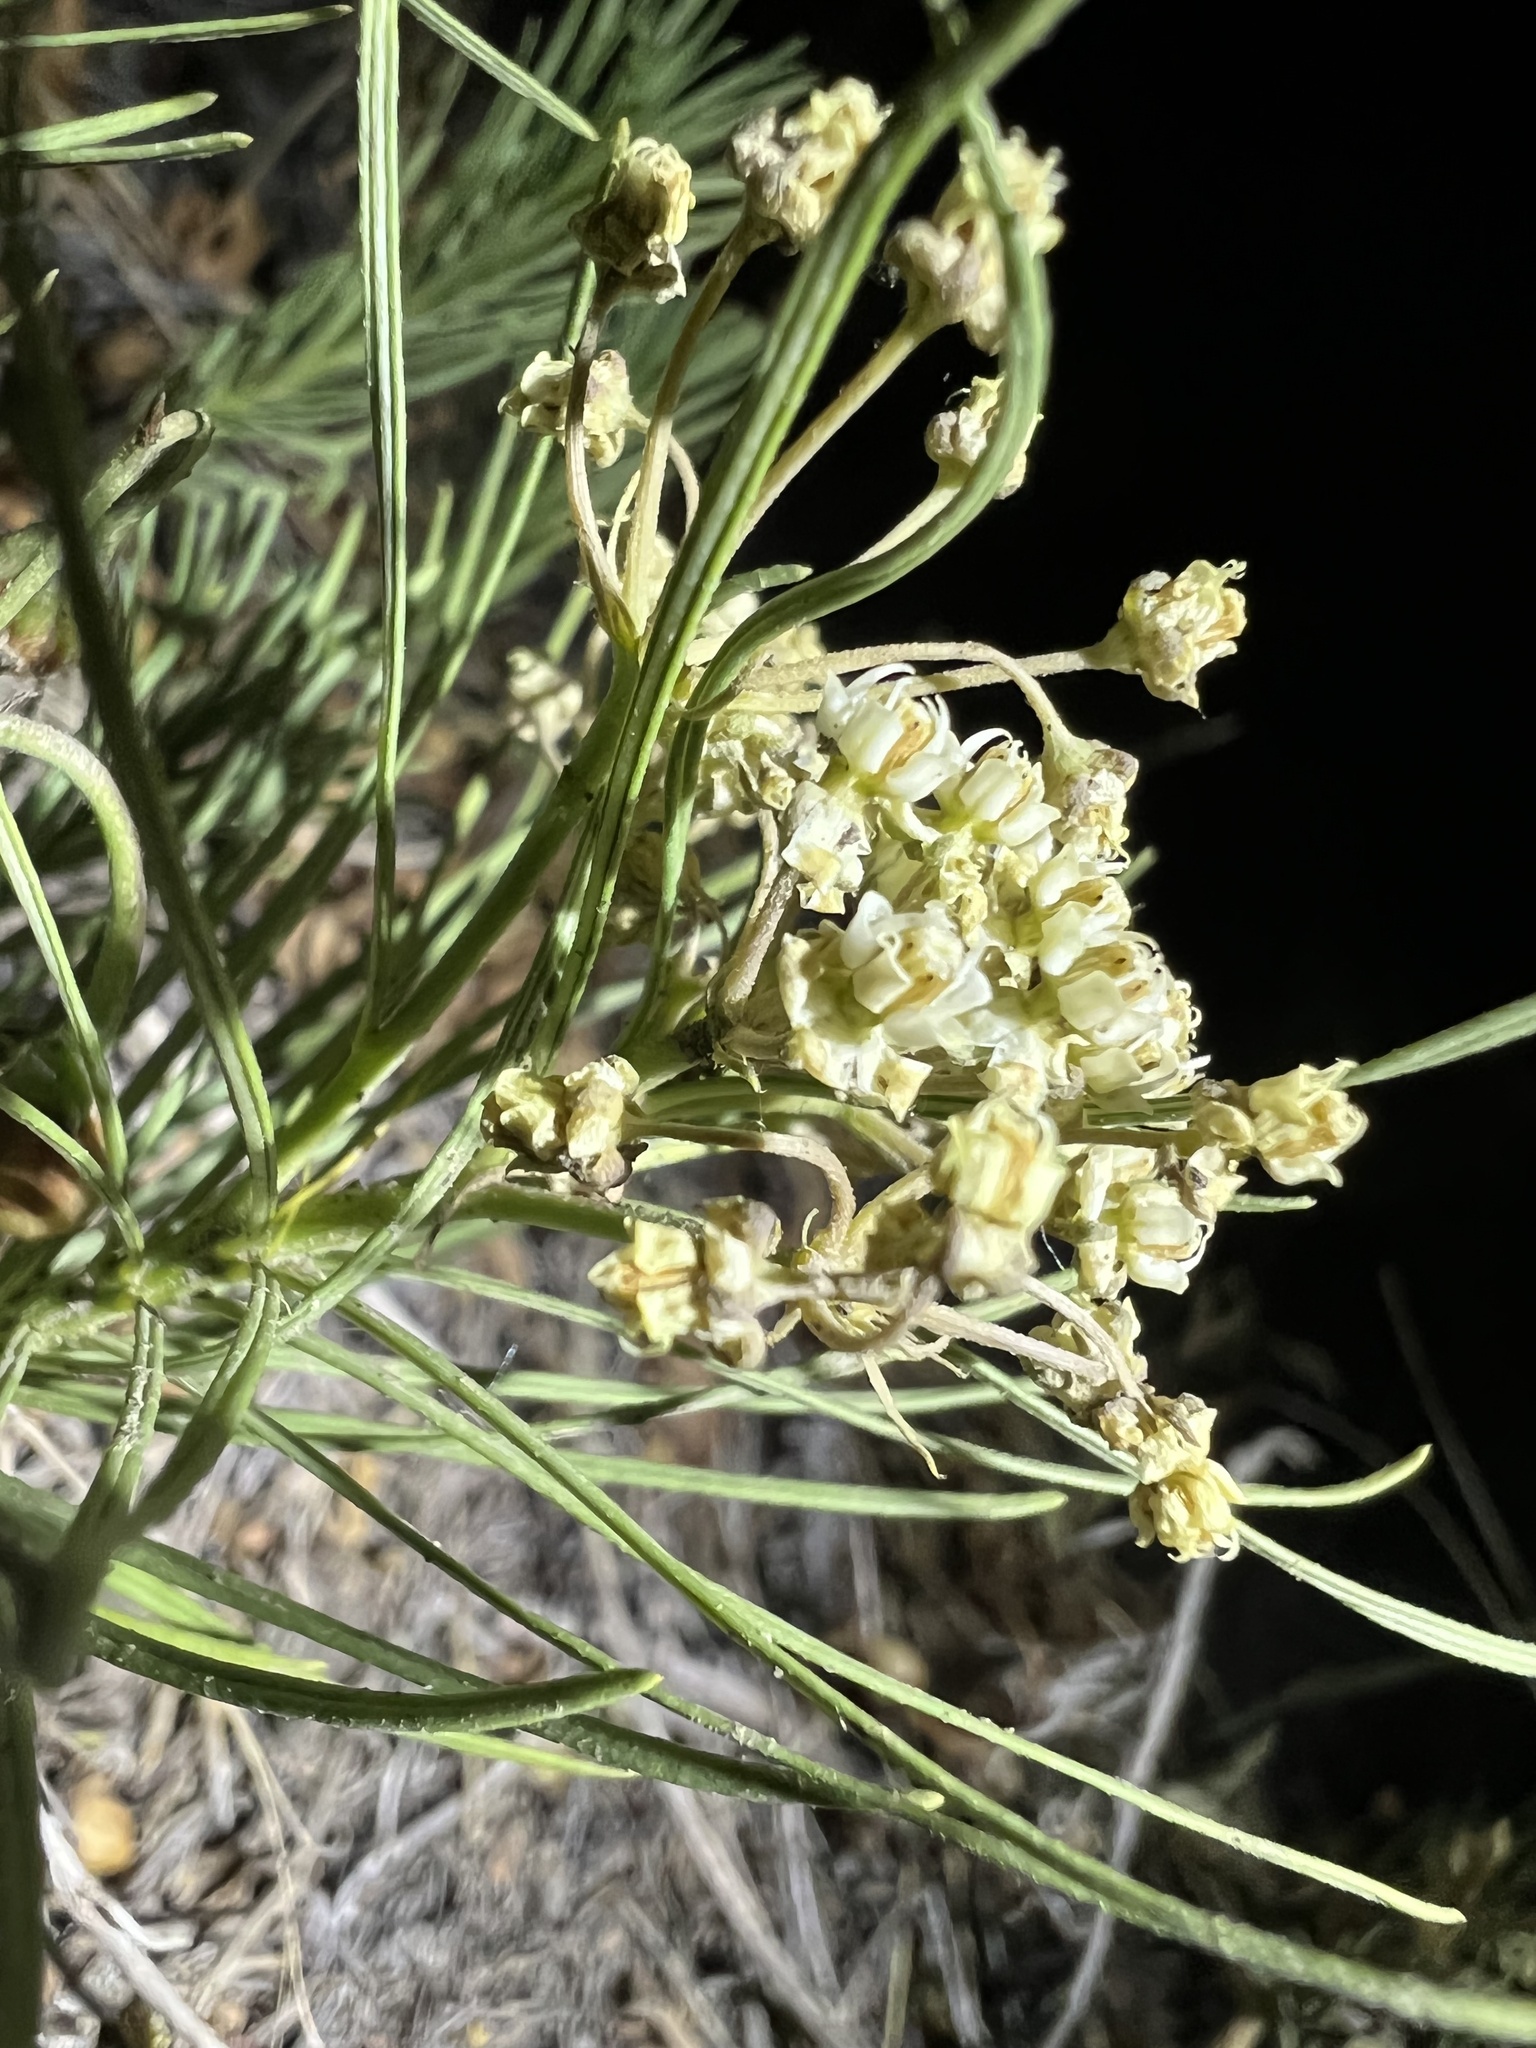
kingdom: Plantae
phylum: Tracheophyta
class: Magnoliopsida
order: Gentianales
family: Apocynaceae
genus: Asclepias
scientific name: Asclepias pumila
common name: Dwarf milkweed
